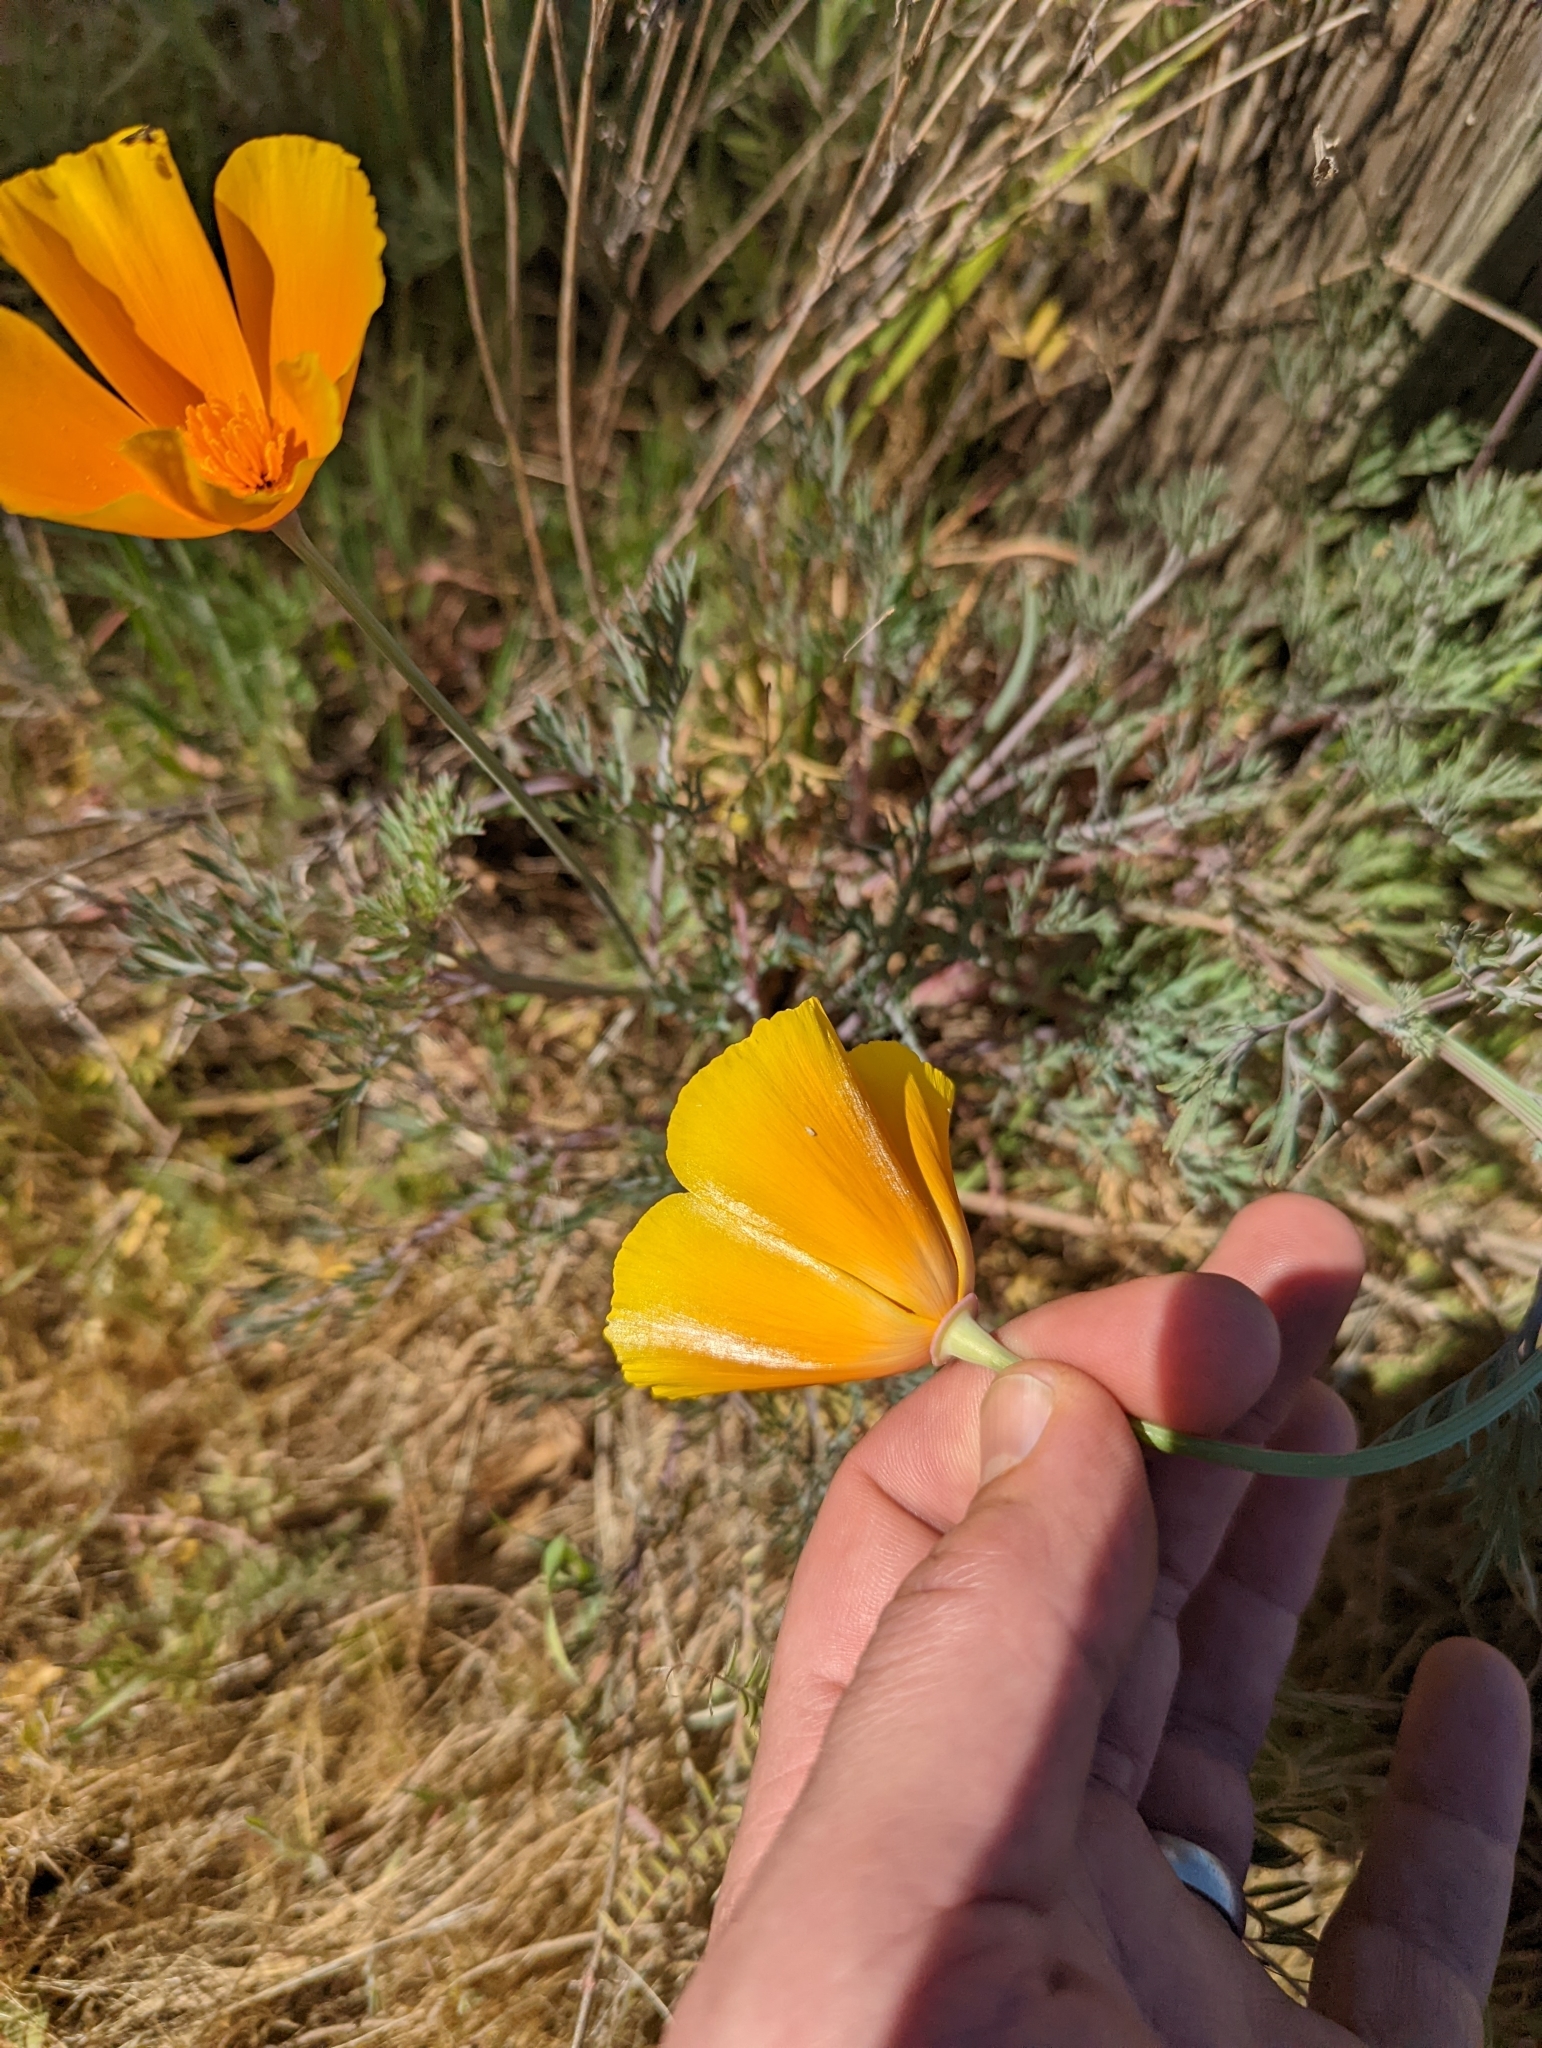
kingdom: Plantae
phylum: Tracheophyta
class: Magnoliopsida
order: Ranunculales
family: Papaveraceae
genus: Eschscholzia
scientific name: Eschscholzia californica
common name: California poppy
